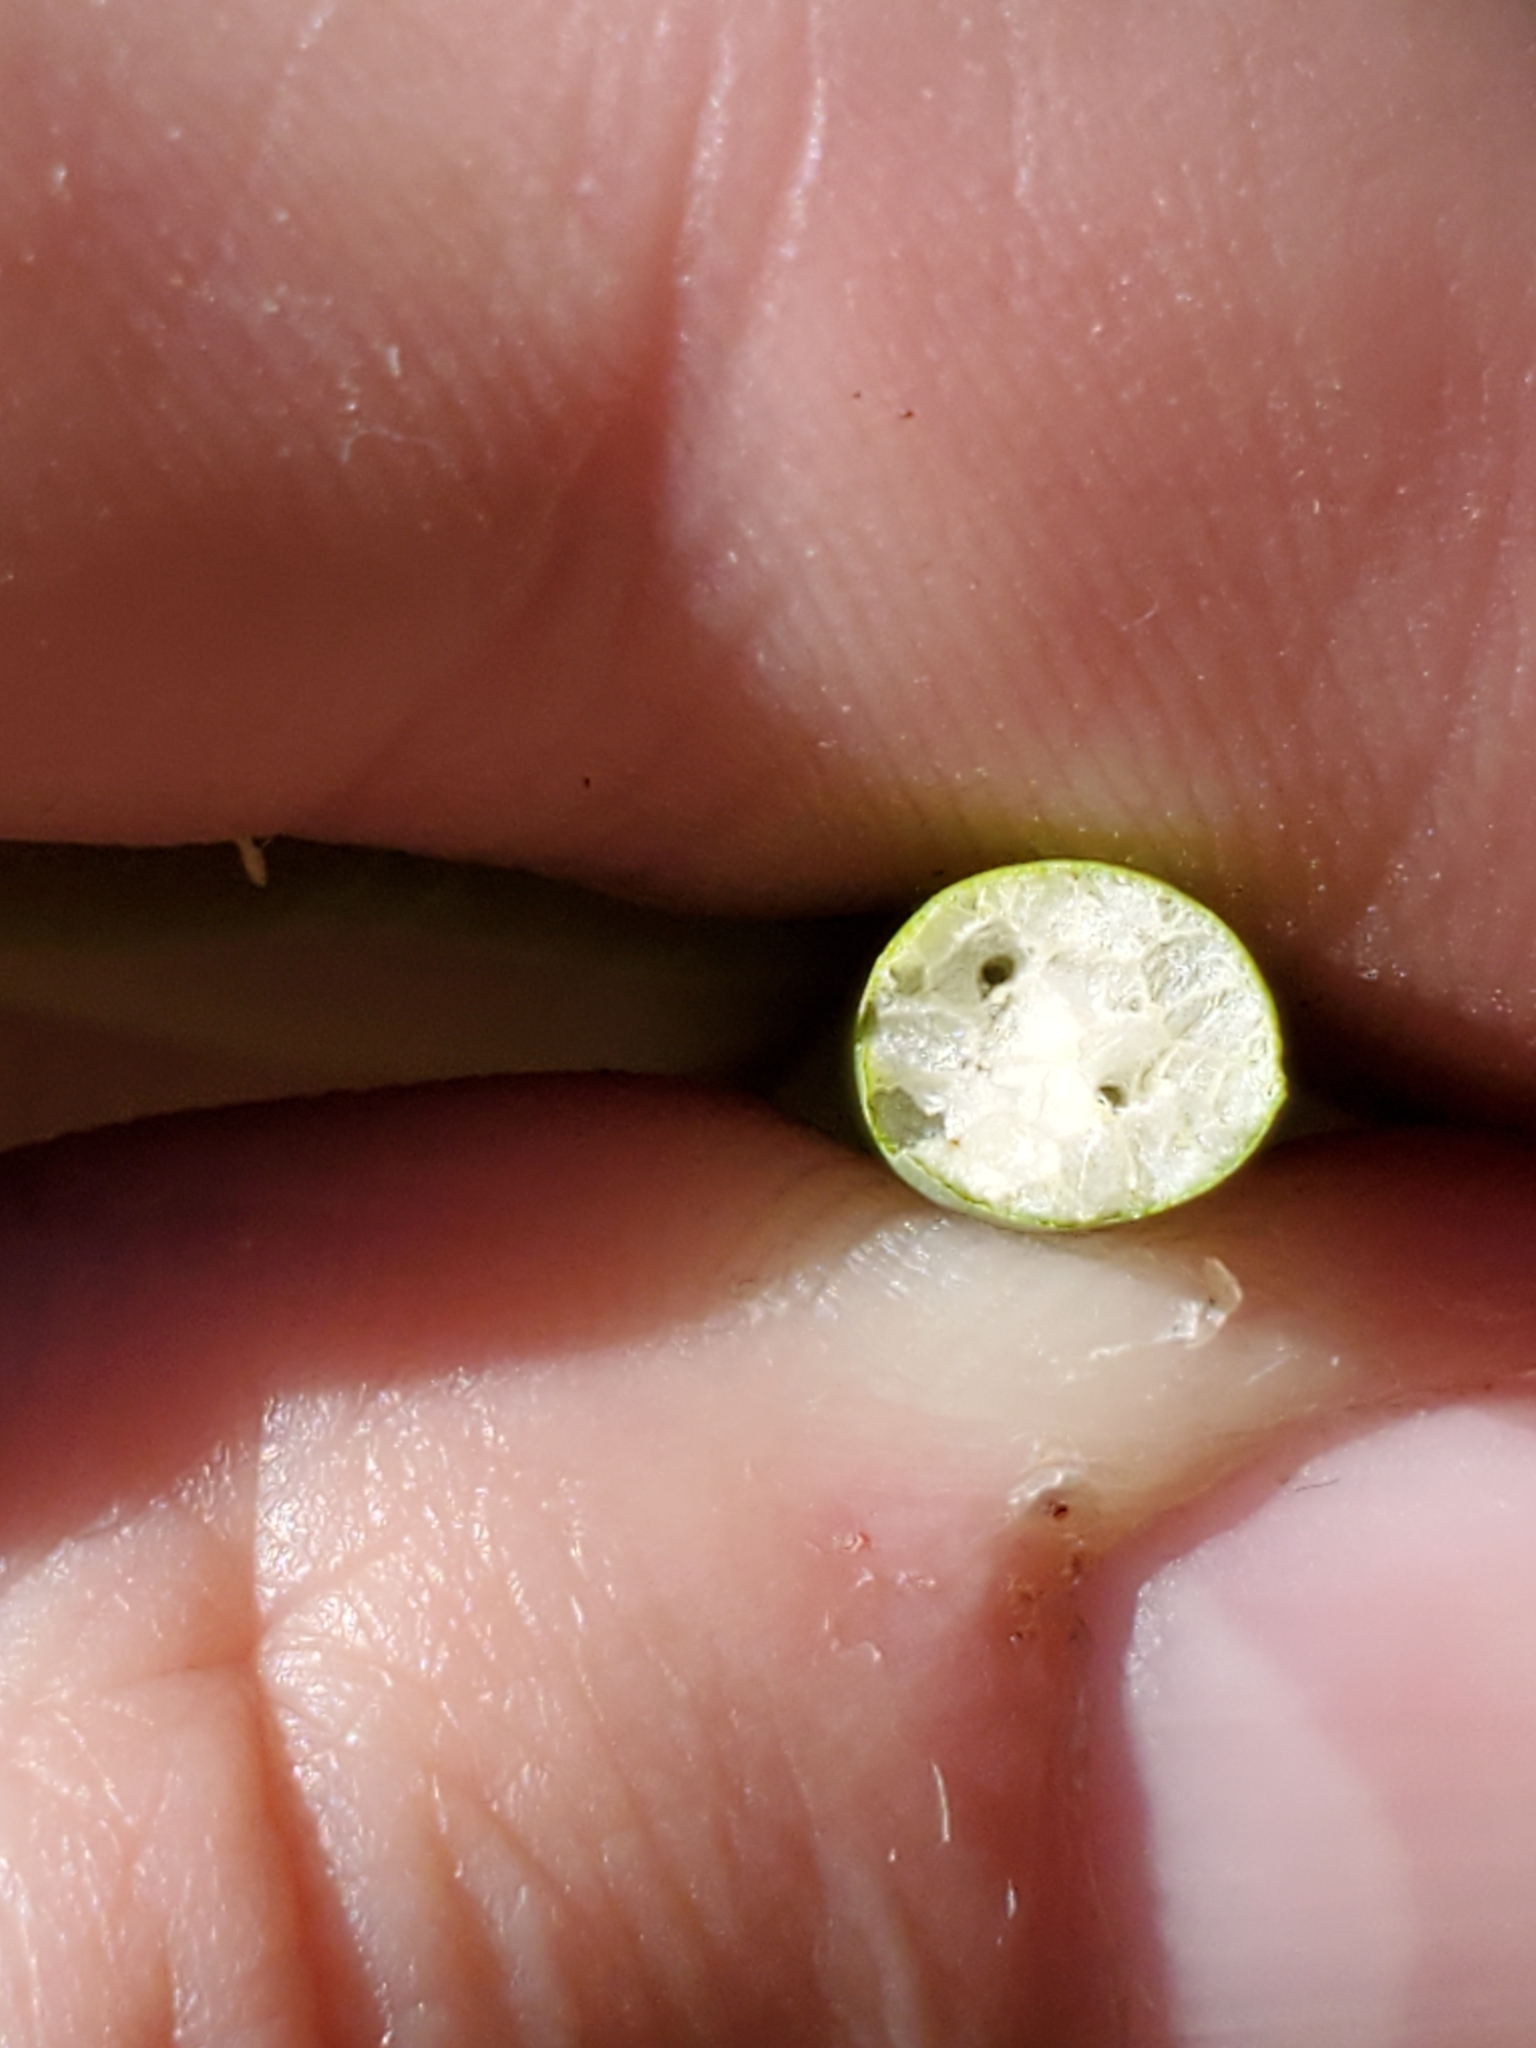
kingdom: Plantae
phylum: Tracheophyta
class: Liliopsida
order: Poales
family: Cyperaceae
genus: Schoenoplectus
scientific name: Schoenoplectus tabernaemontani
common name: Grey club-rush
